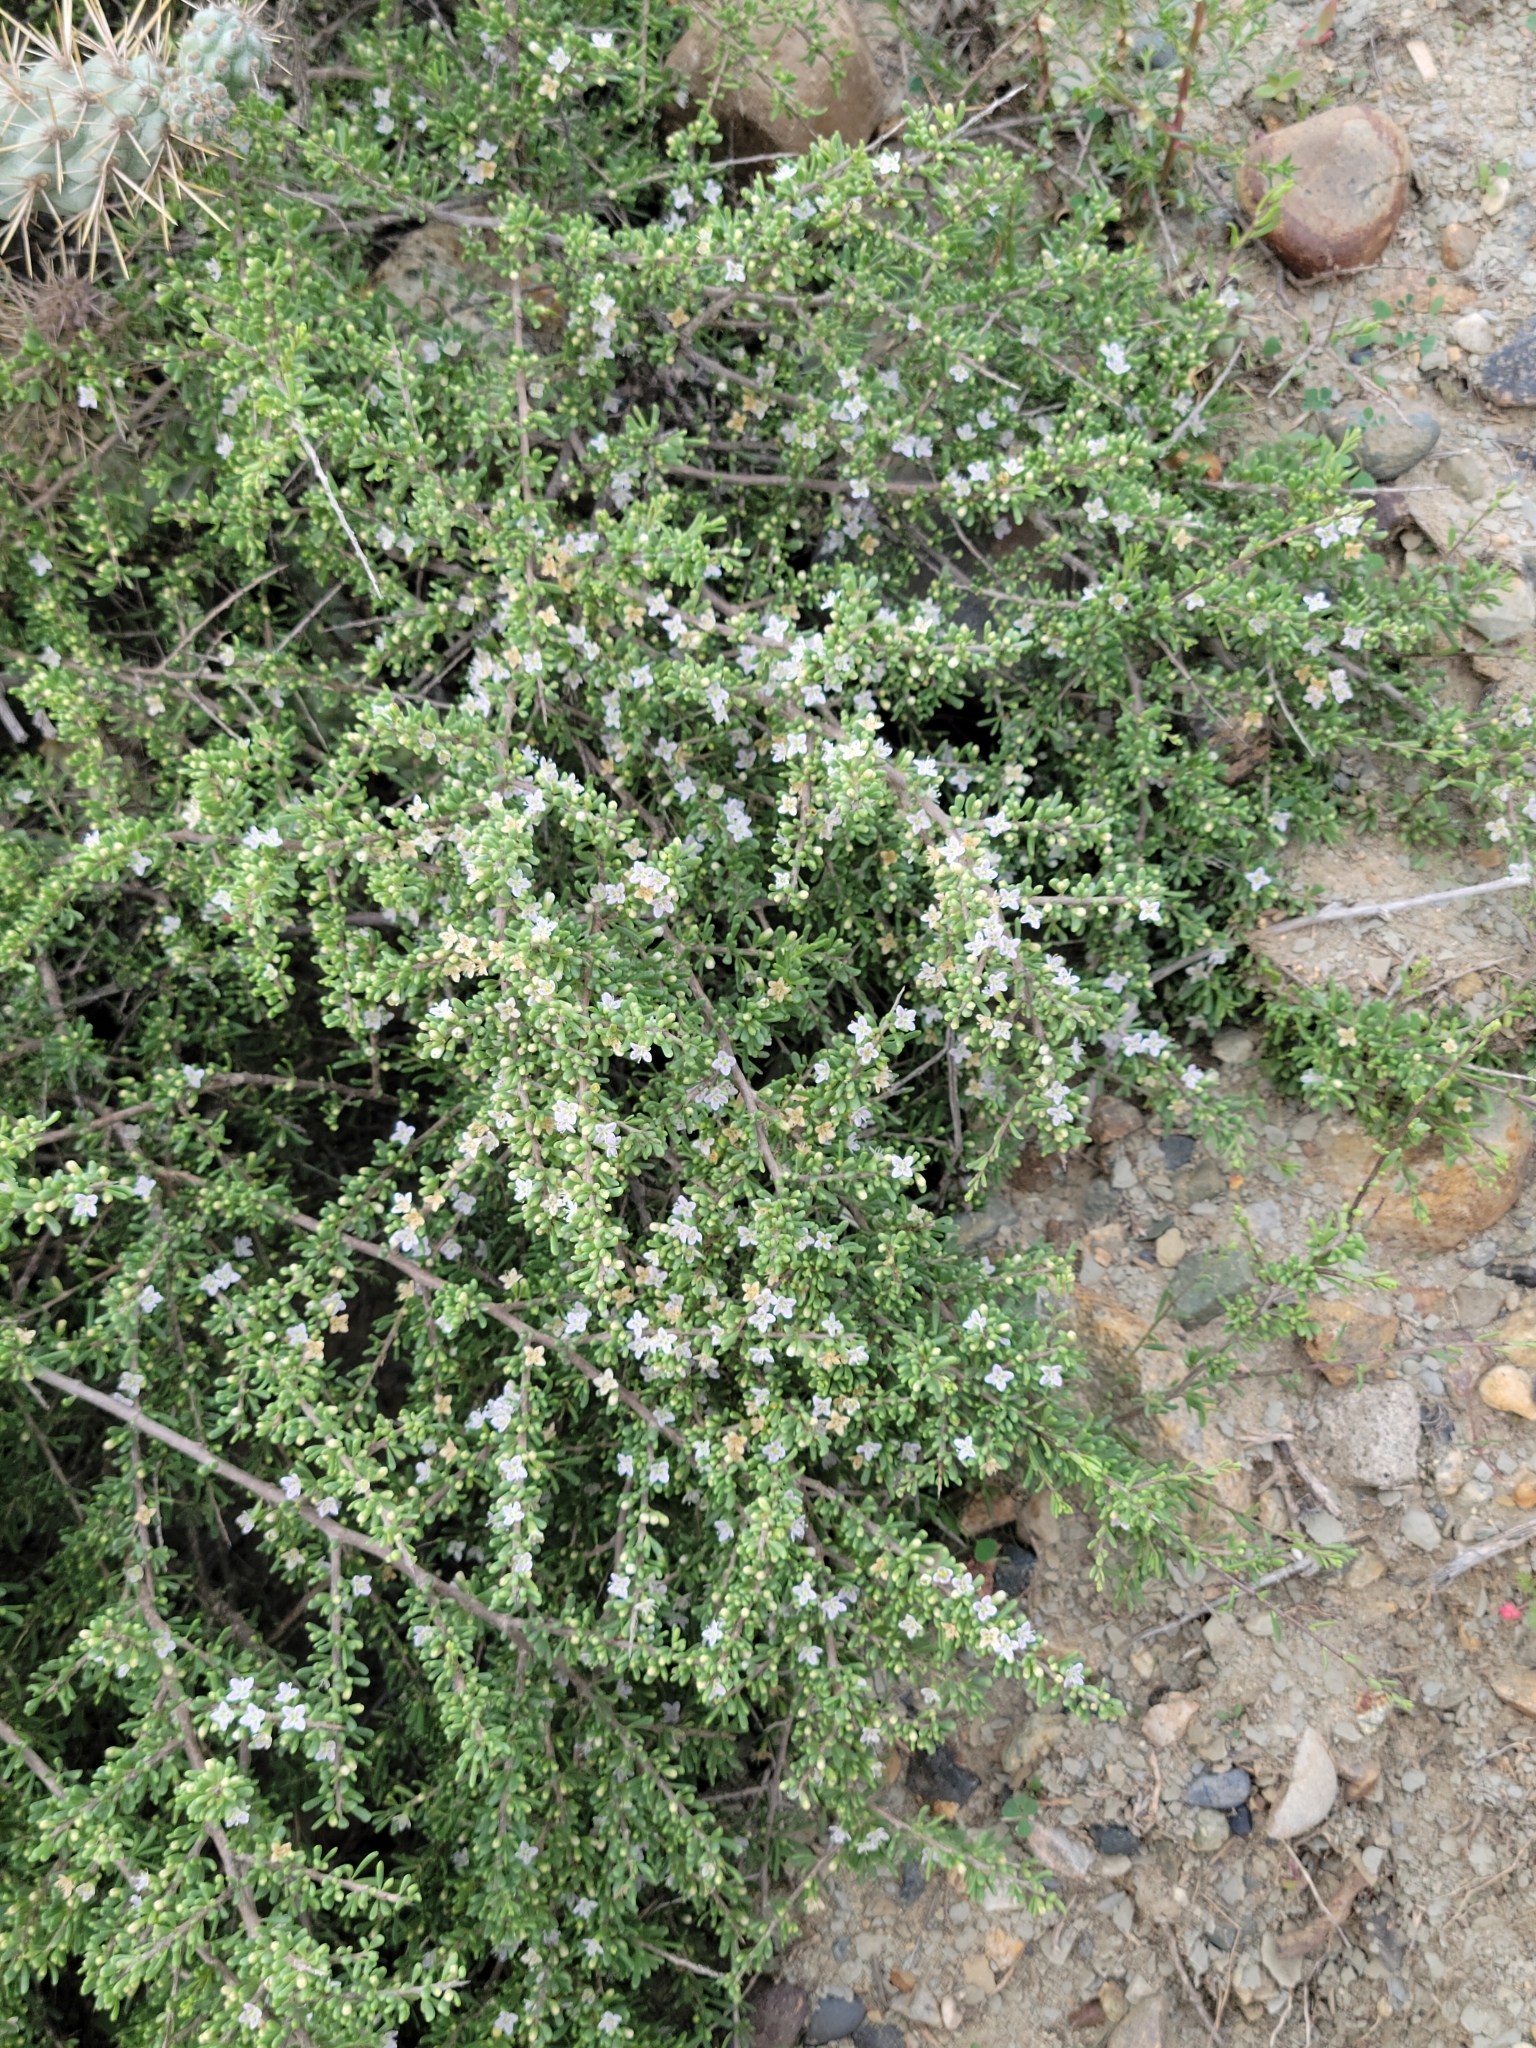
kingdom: Plantae
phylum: Tracheophyta
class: Magnoliopsida
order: Solanales
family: Solanaceae
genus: Lycium
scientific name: Lycium californicum
